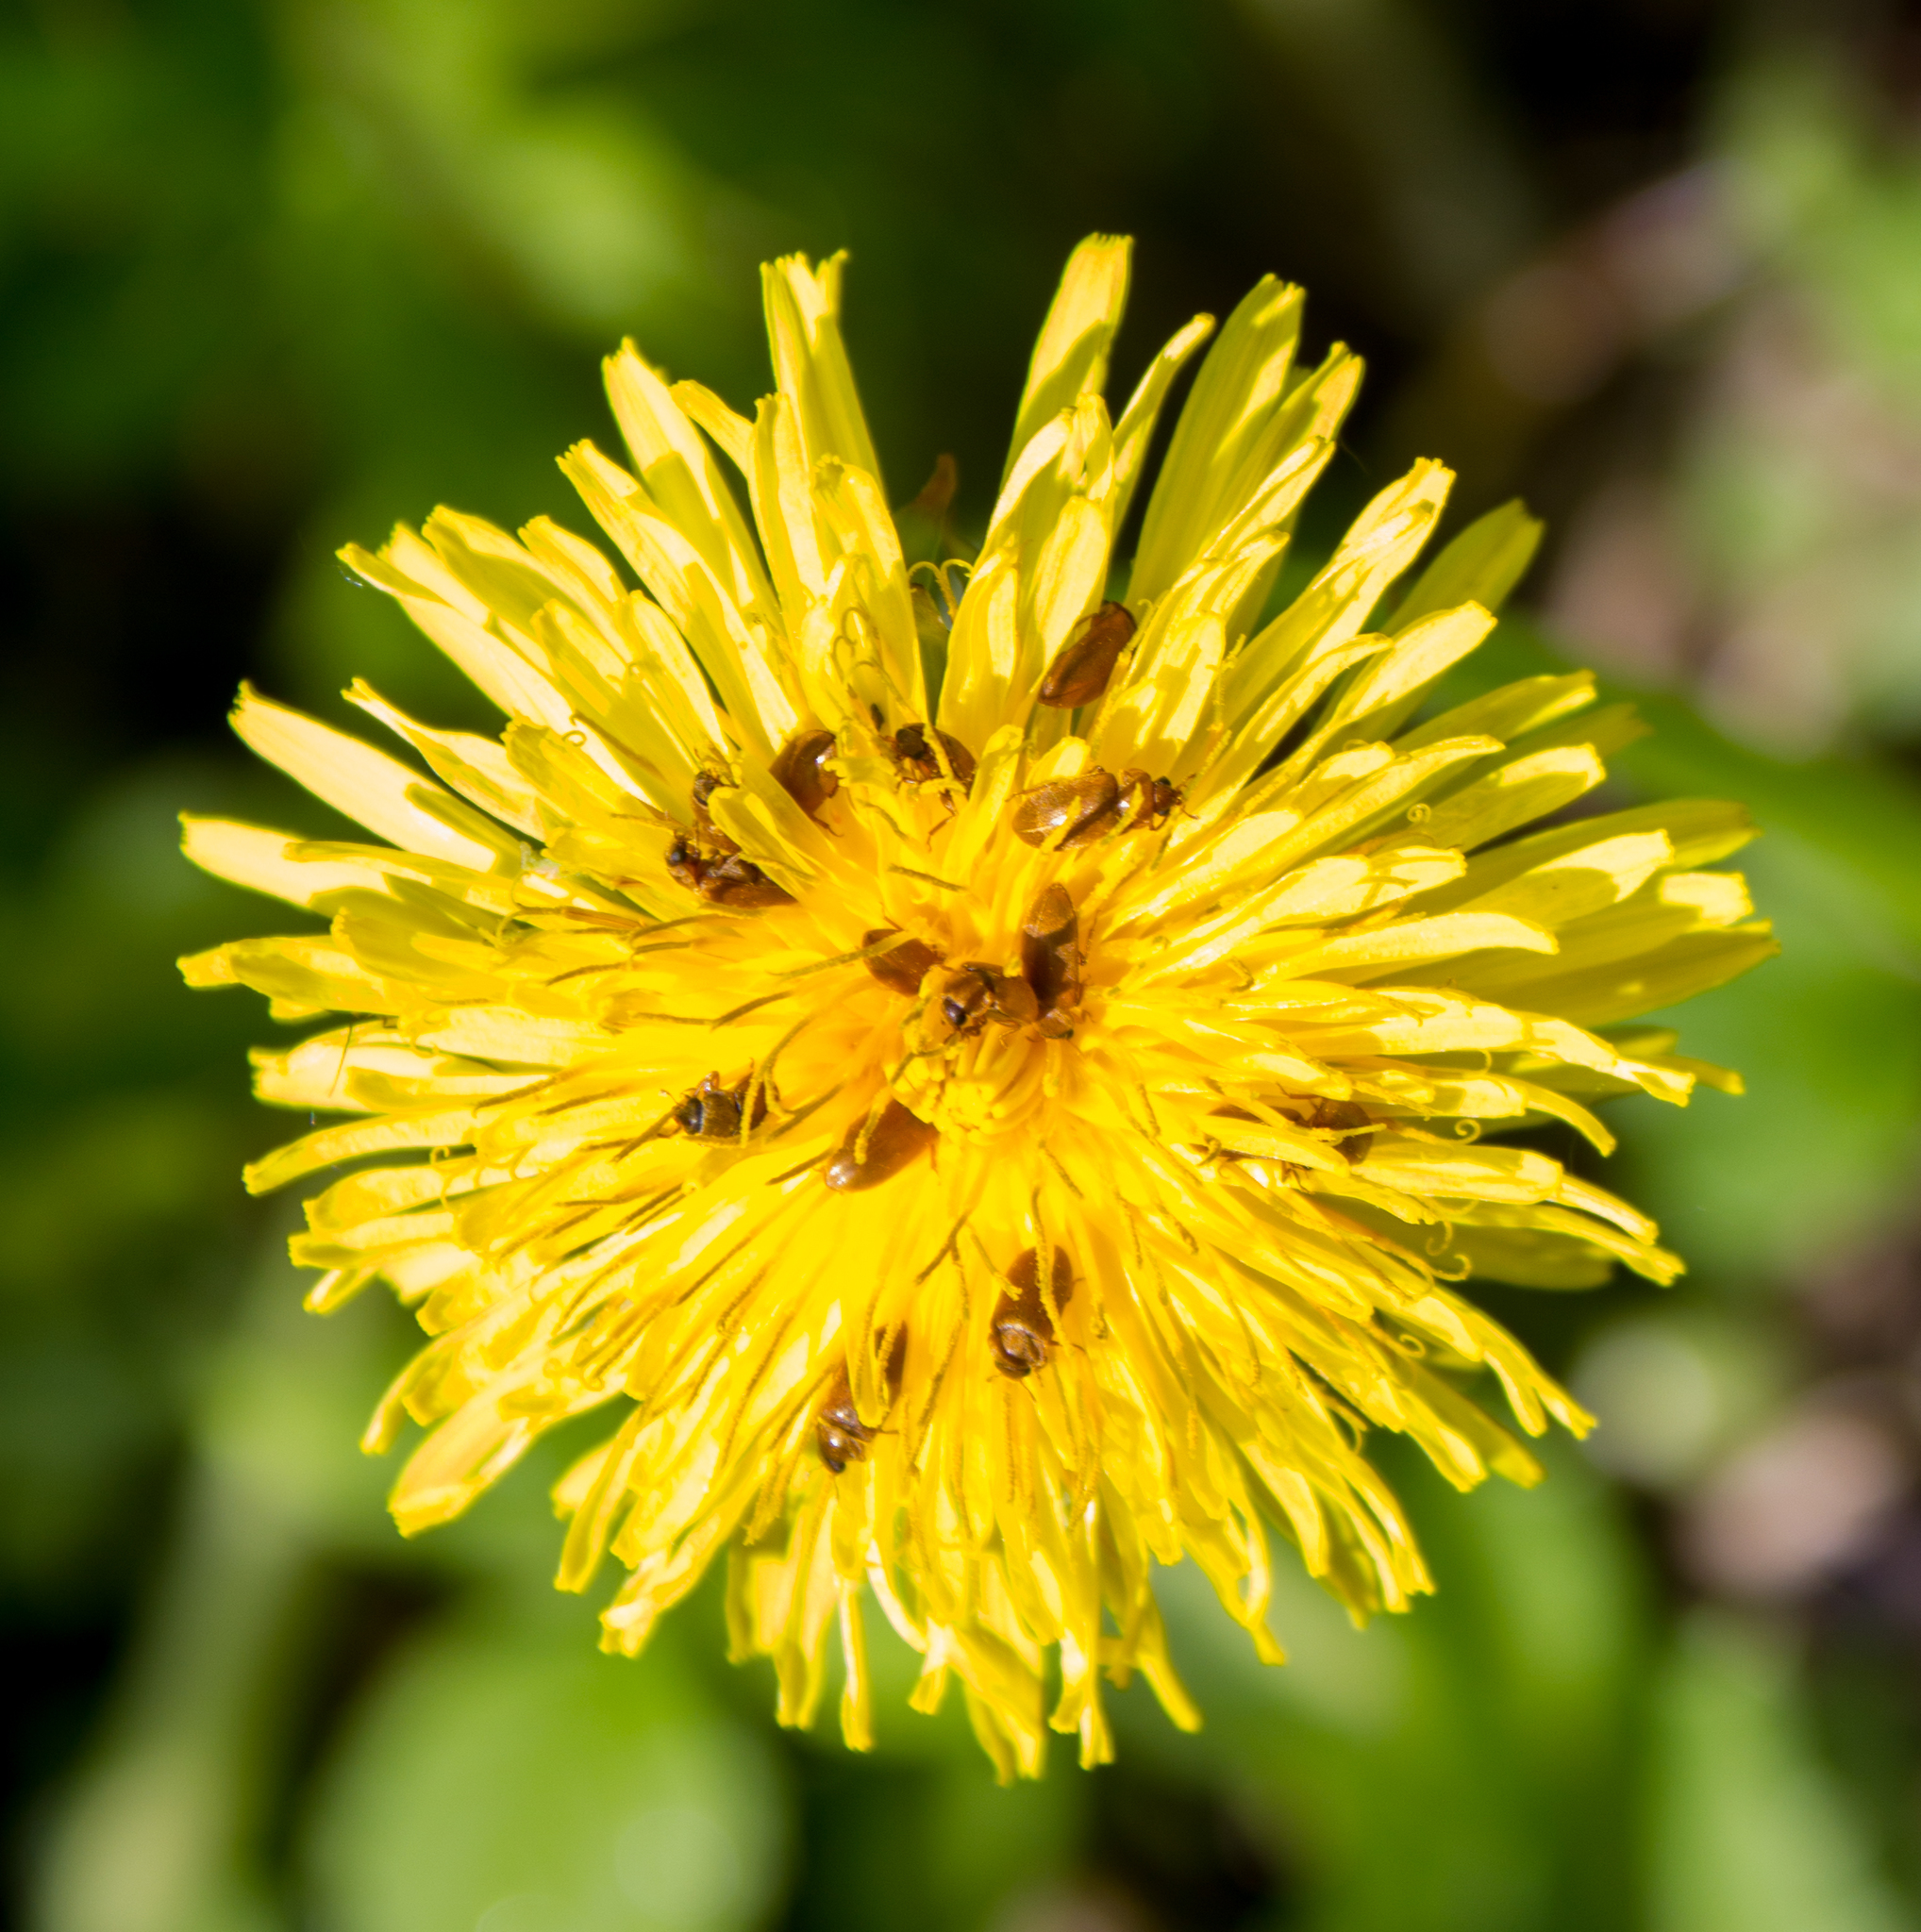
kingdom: Plantae
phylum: Tracheophyta
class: Magnoliopsida
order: Asterales
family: Asteraceae
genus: Taraxacum
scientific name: Taraxacum officinale
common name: Common dandelion
